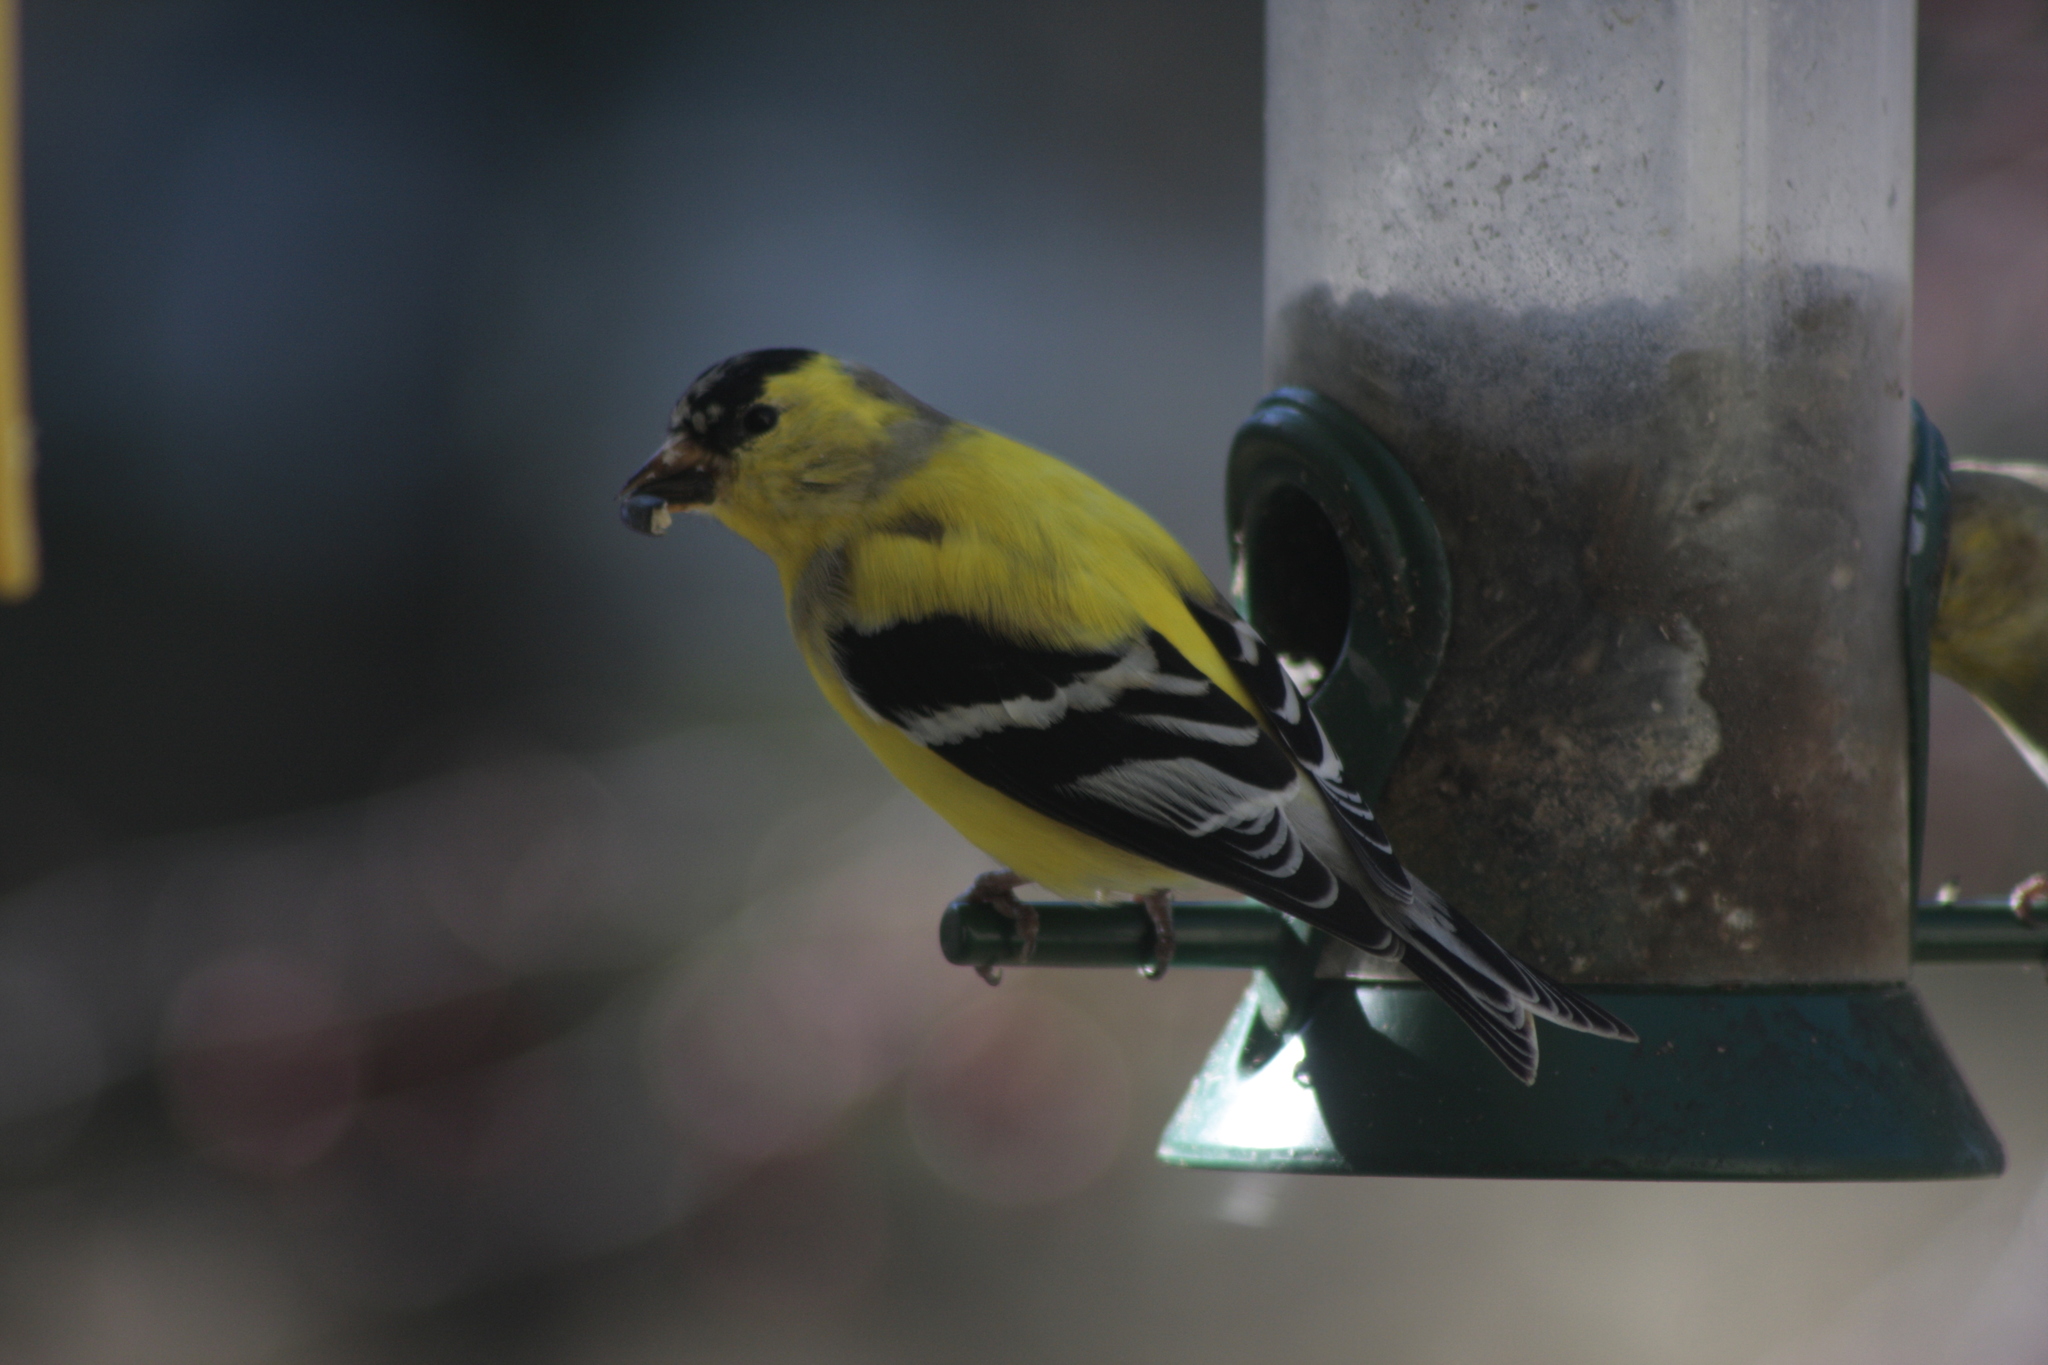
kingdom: Animalia
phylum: Chordata
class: Aves
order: Passeriformes
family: Fringillidae
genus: Spinus
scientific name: Spinus tristis
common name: American goldfinch
